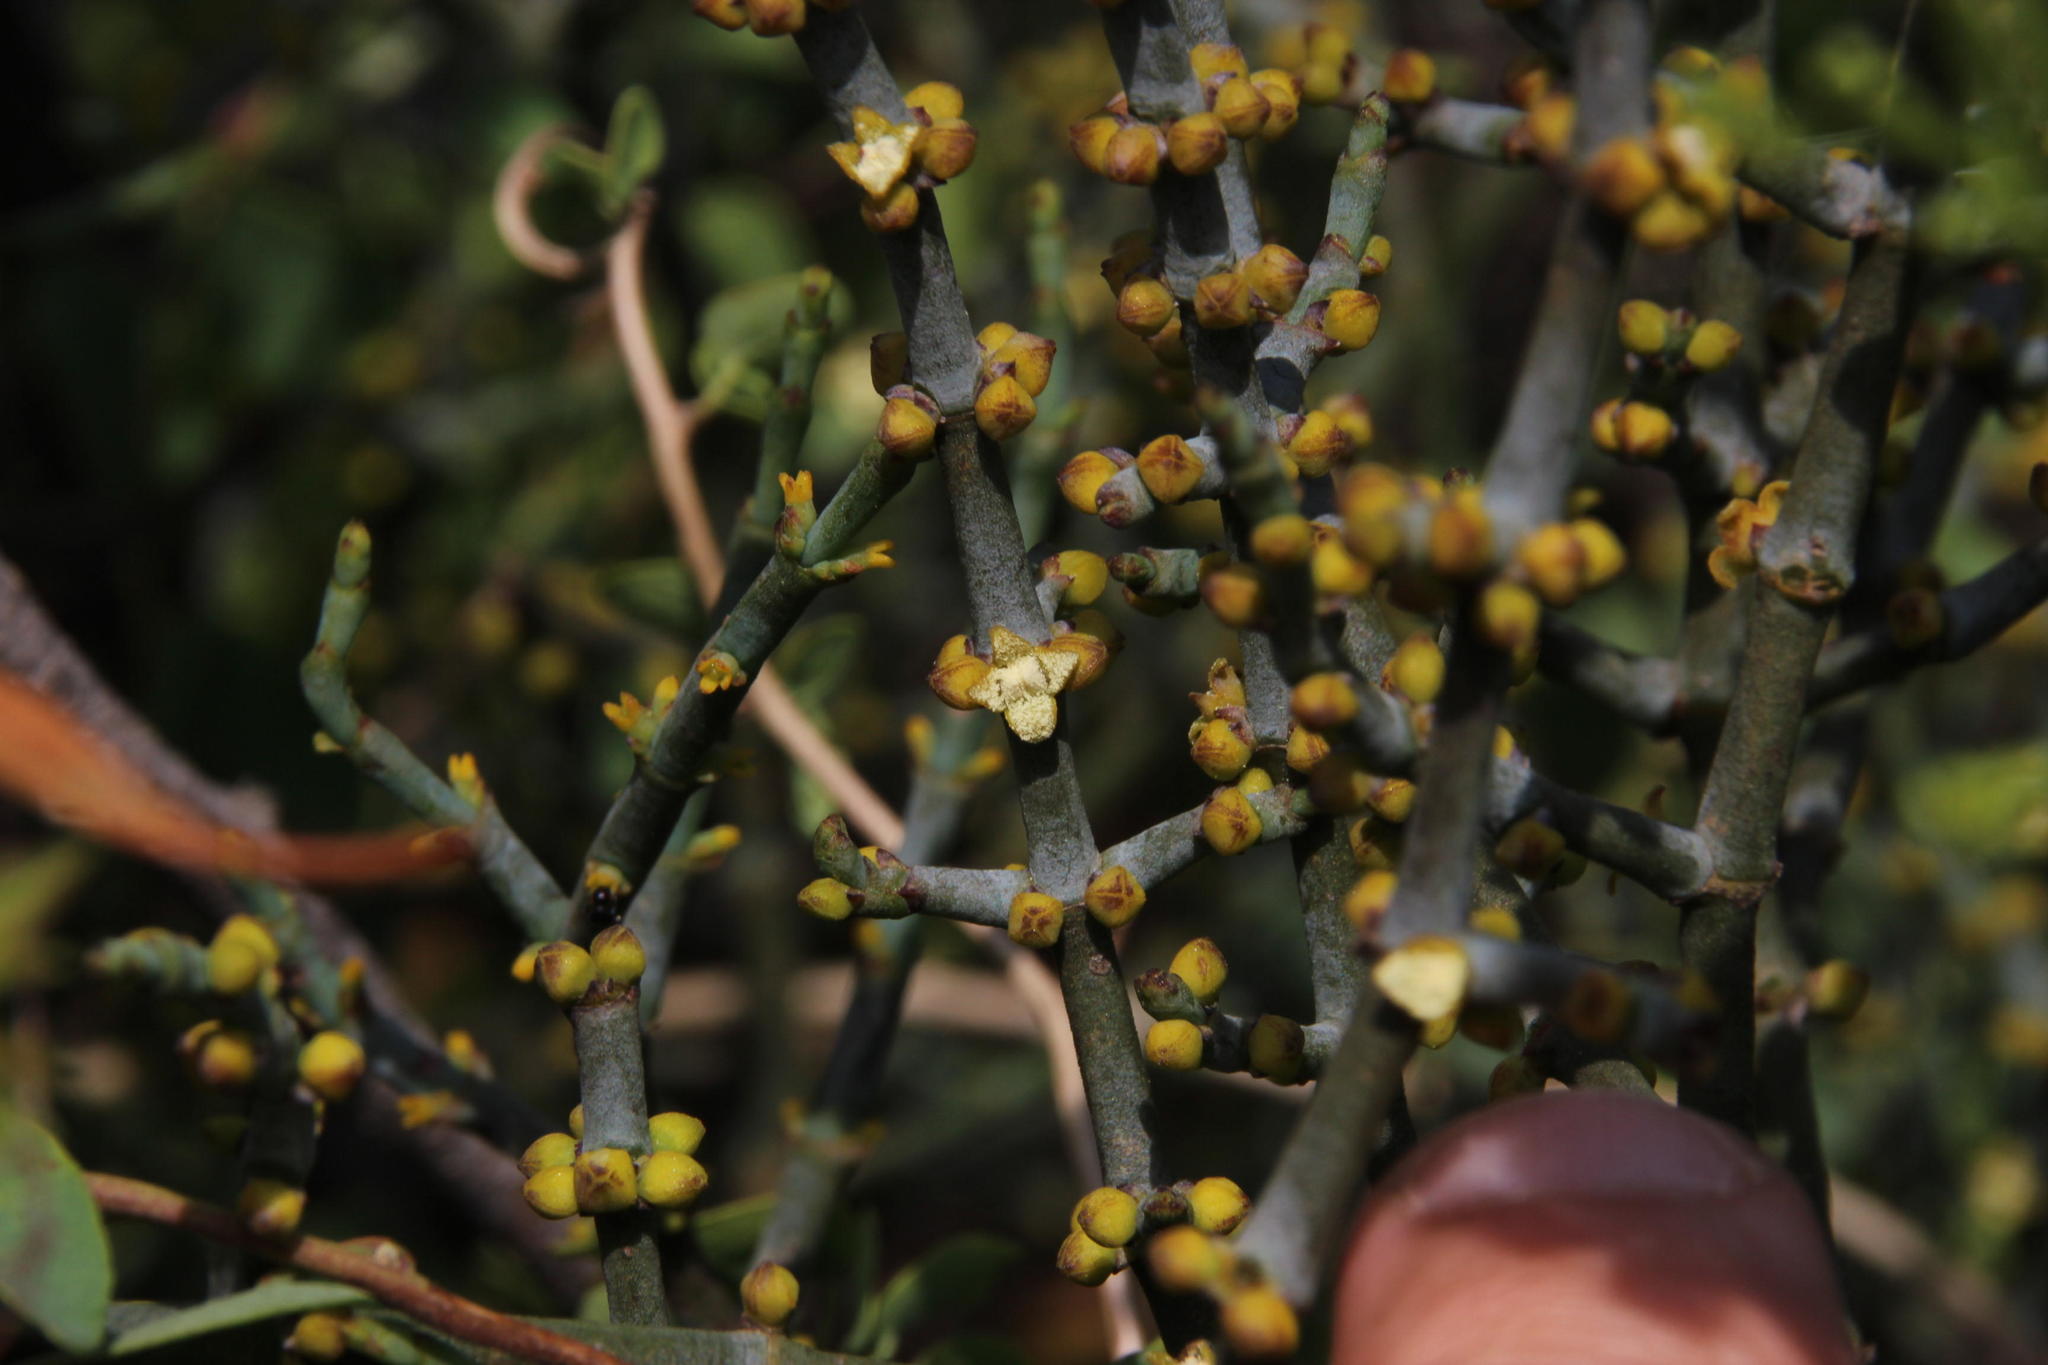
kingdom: Plantae
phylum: Tracheophyta
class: Magnoliopsida
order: Santalales
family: Viscaceae
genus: Viscum
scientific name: Viscum capense
